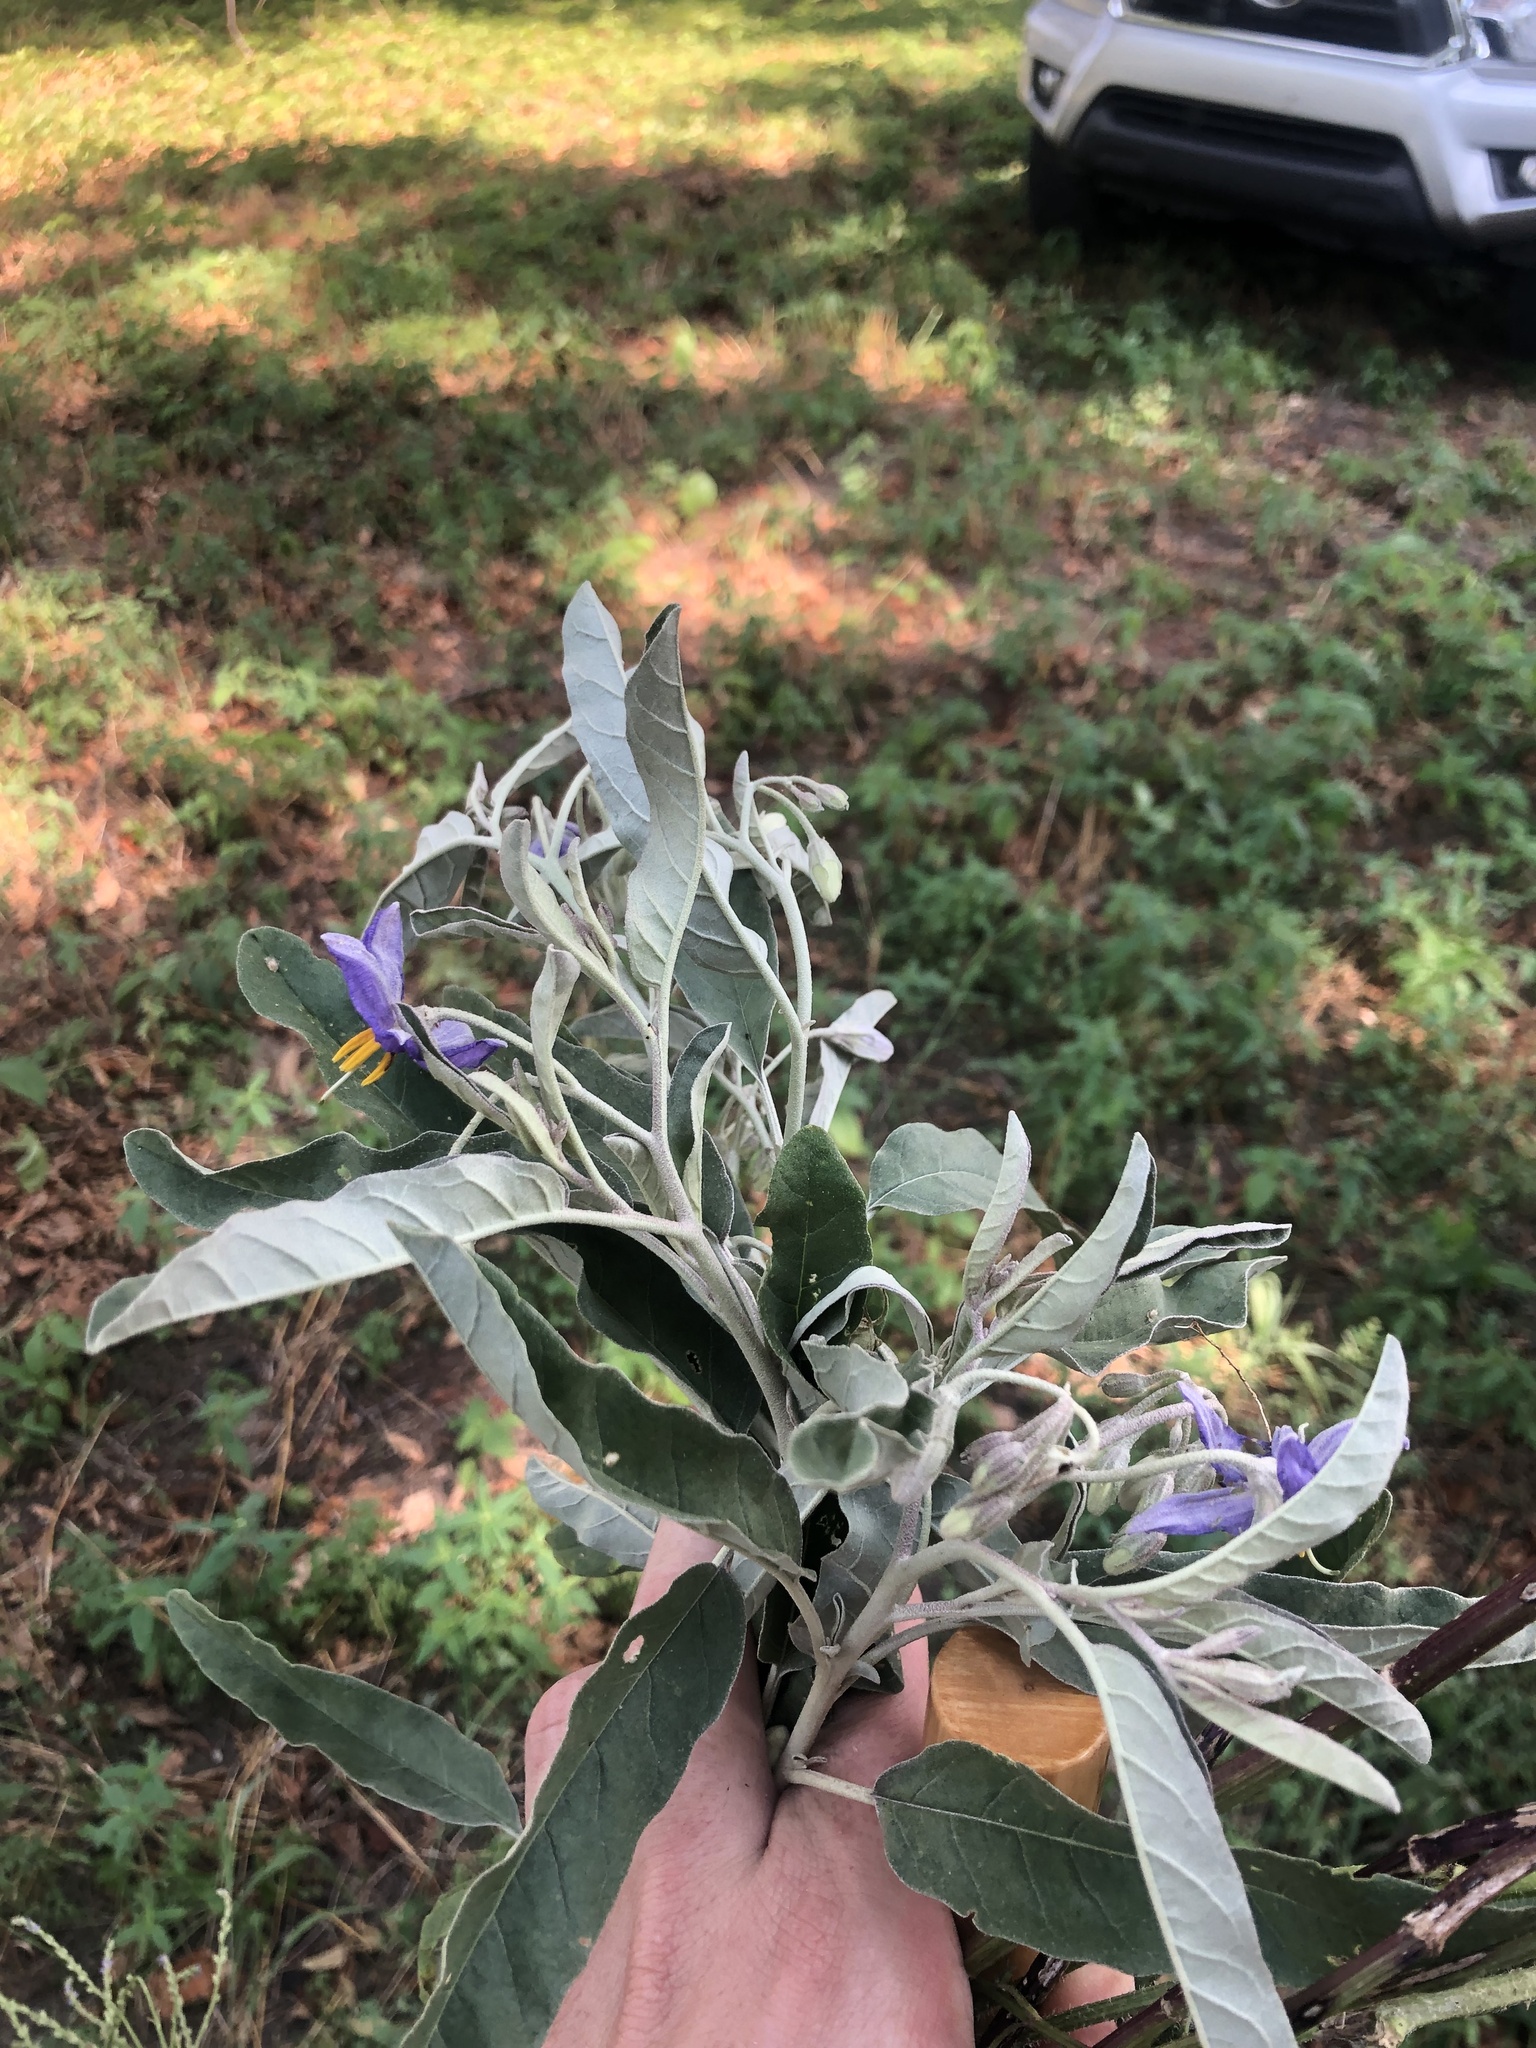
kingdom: Plantae
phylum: Tracheophyta
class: Magnoliopsida
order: Solanales
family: Solanaceae
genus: Solanum
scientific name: Solanum elaeagnifolium
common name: Silverleaf nightshade
